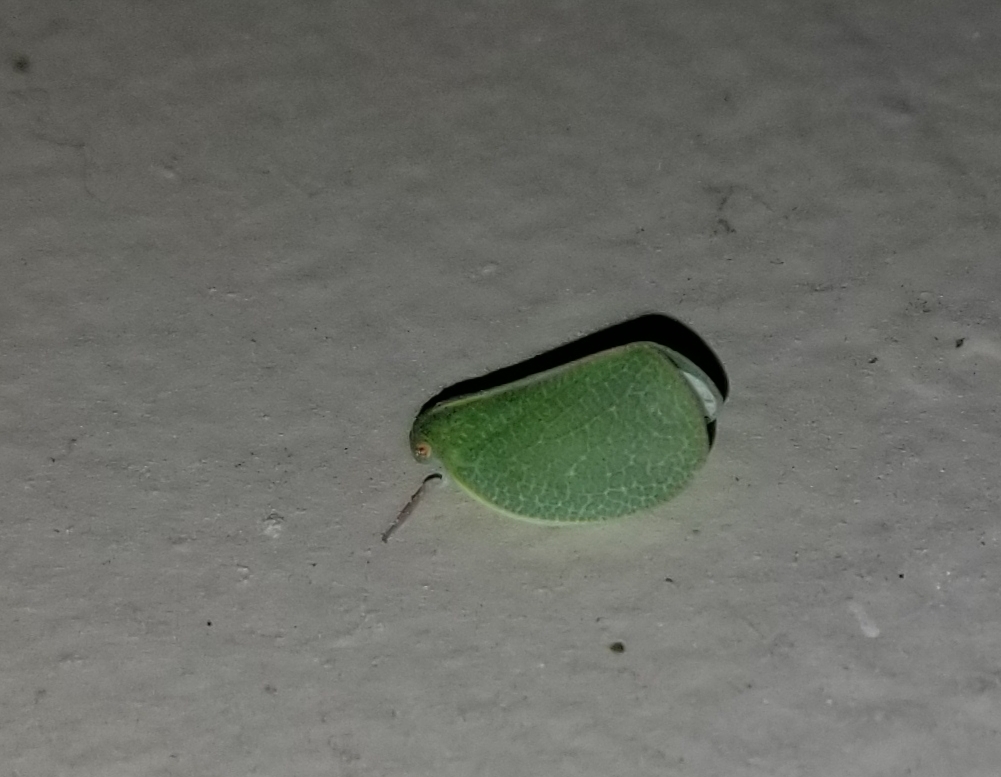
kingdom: Animalia
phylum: Arthropoda
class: Insecta
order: Hemiptera
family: Acanaloniidae
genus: Acanalonia
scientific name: Acanalonia servillei
